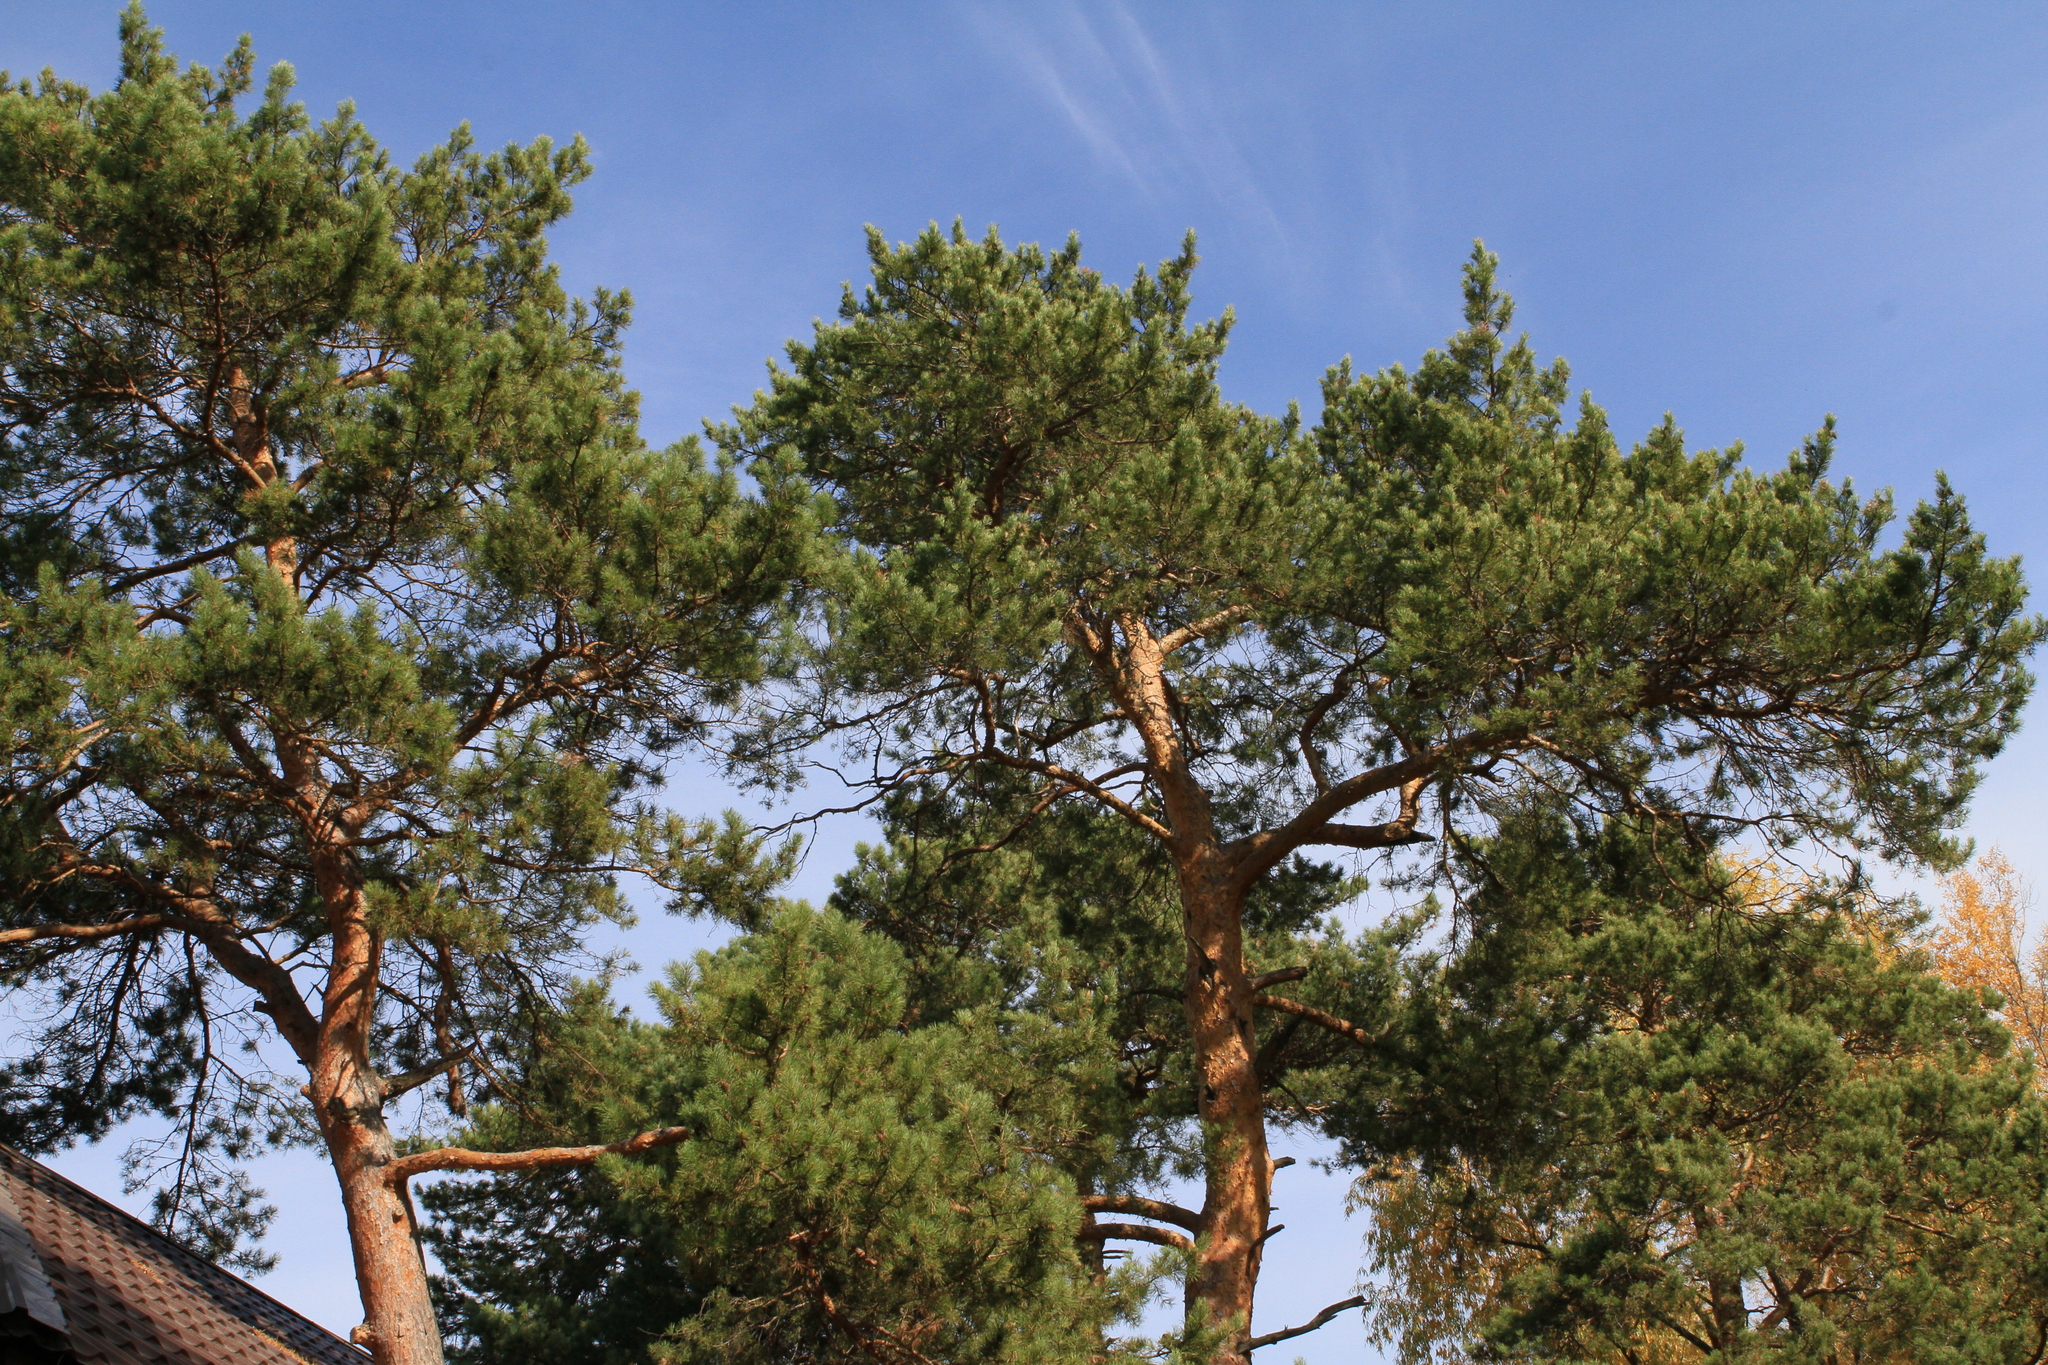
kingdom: Plantae
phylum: Tracheophyta
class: Pinopsida
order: Pinales
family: Pinaceae
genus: Pinus
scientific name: Pinus sylvestris
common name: Scots pine
